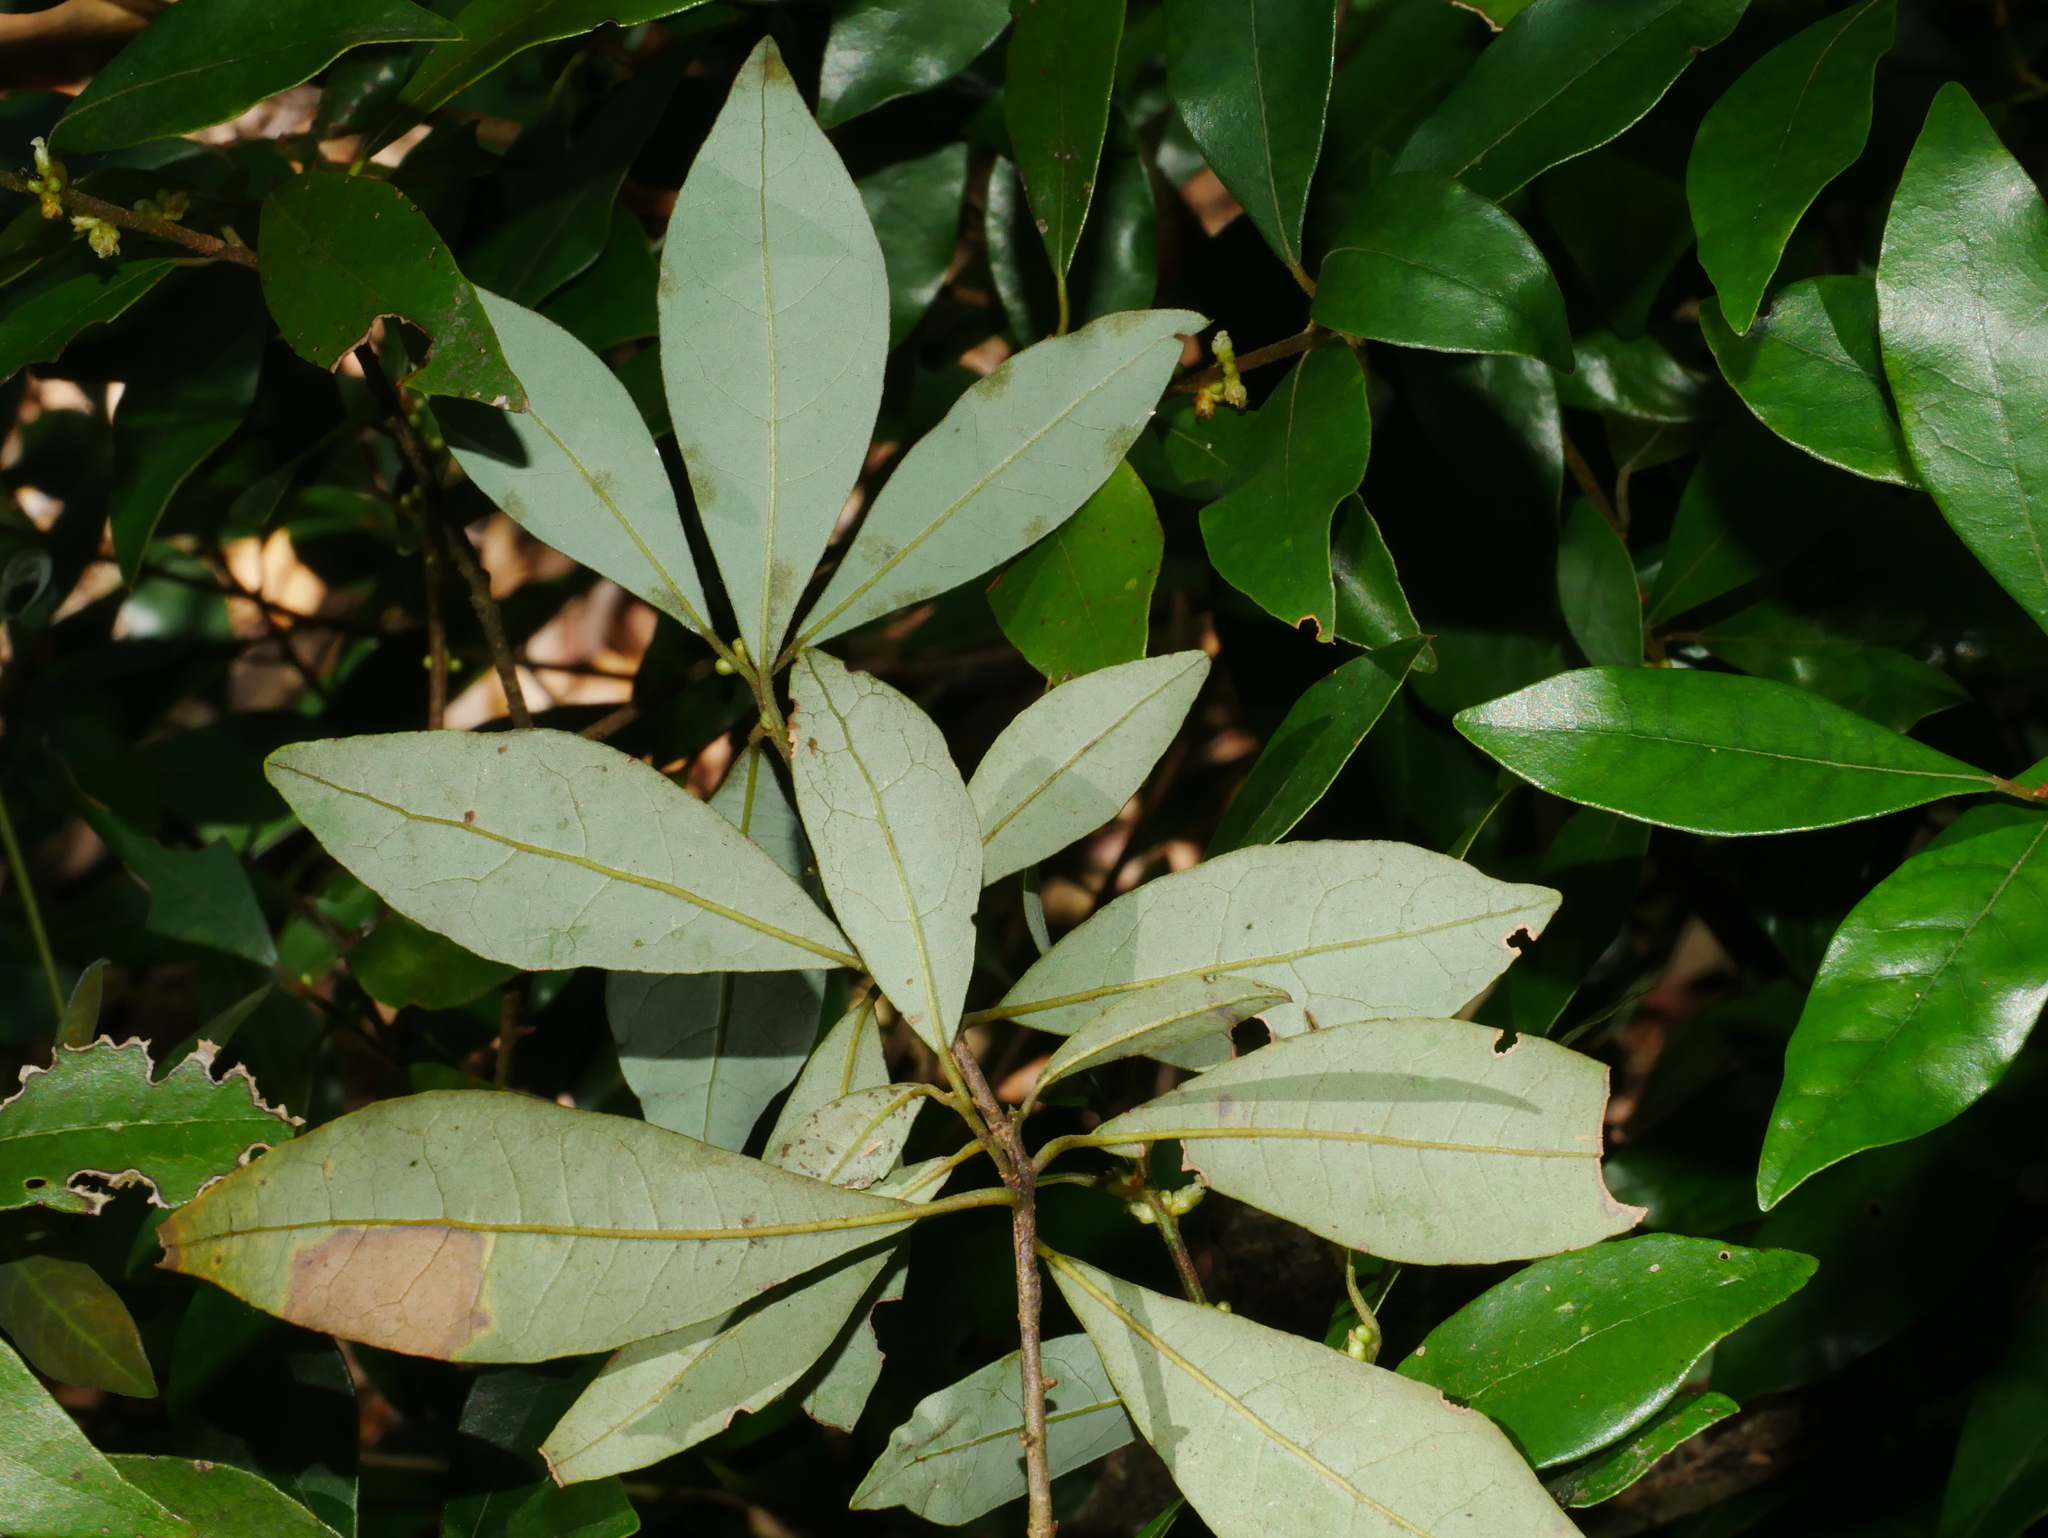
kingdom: Plantae
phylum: Tracheophyta
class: Magnoliopsida
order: Laurales
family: Lauraceae
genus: Litsea
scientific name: Litsea rotundifolia
